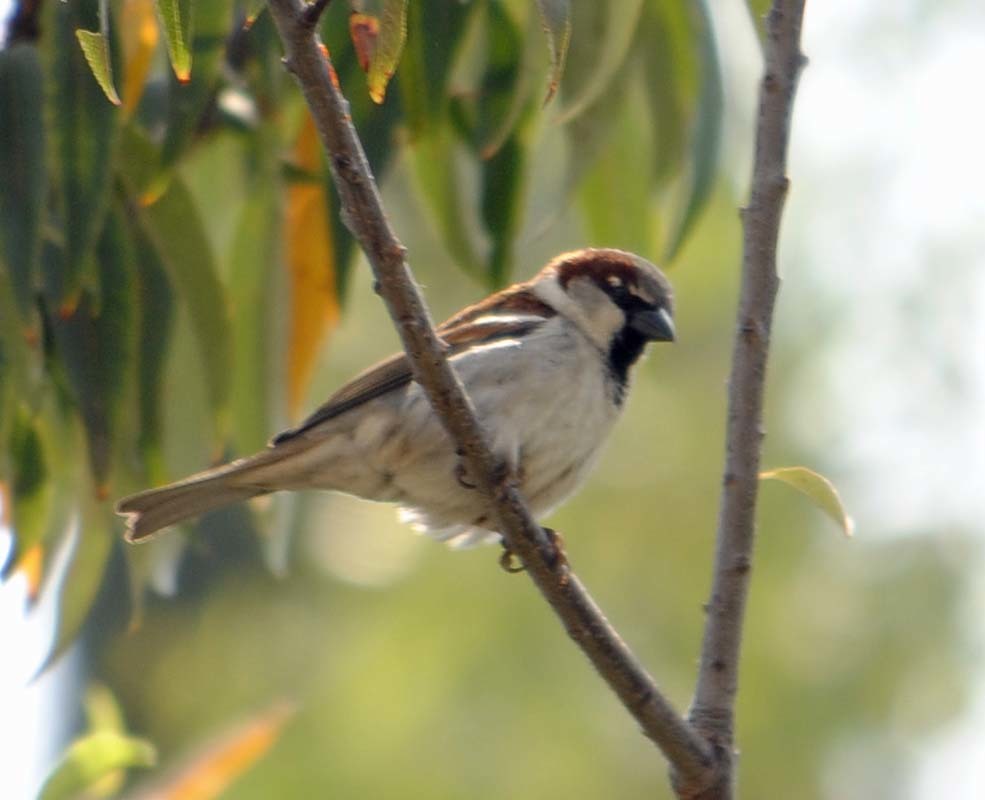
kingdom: Animalia
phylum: Chordata
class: Aves
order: Passeriformes
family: Passeridae
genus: Passer
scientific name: Passer domesticus
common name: House sparrow
